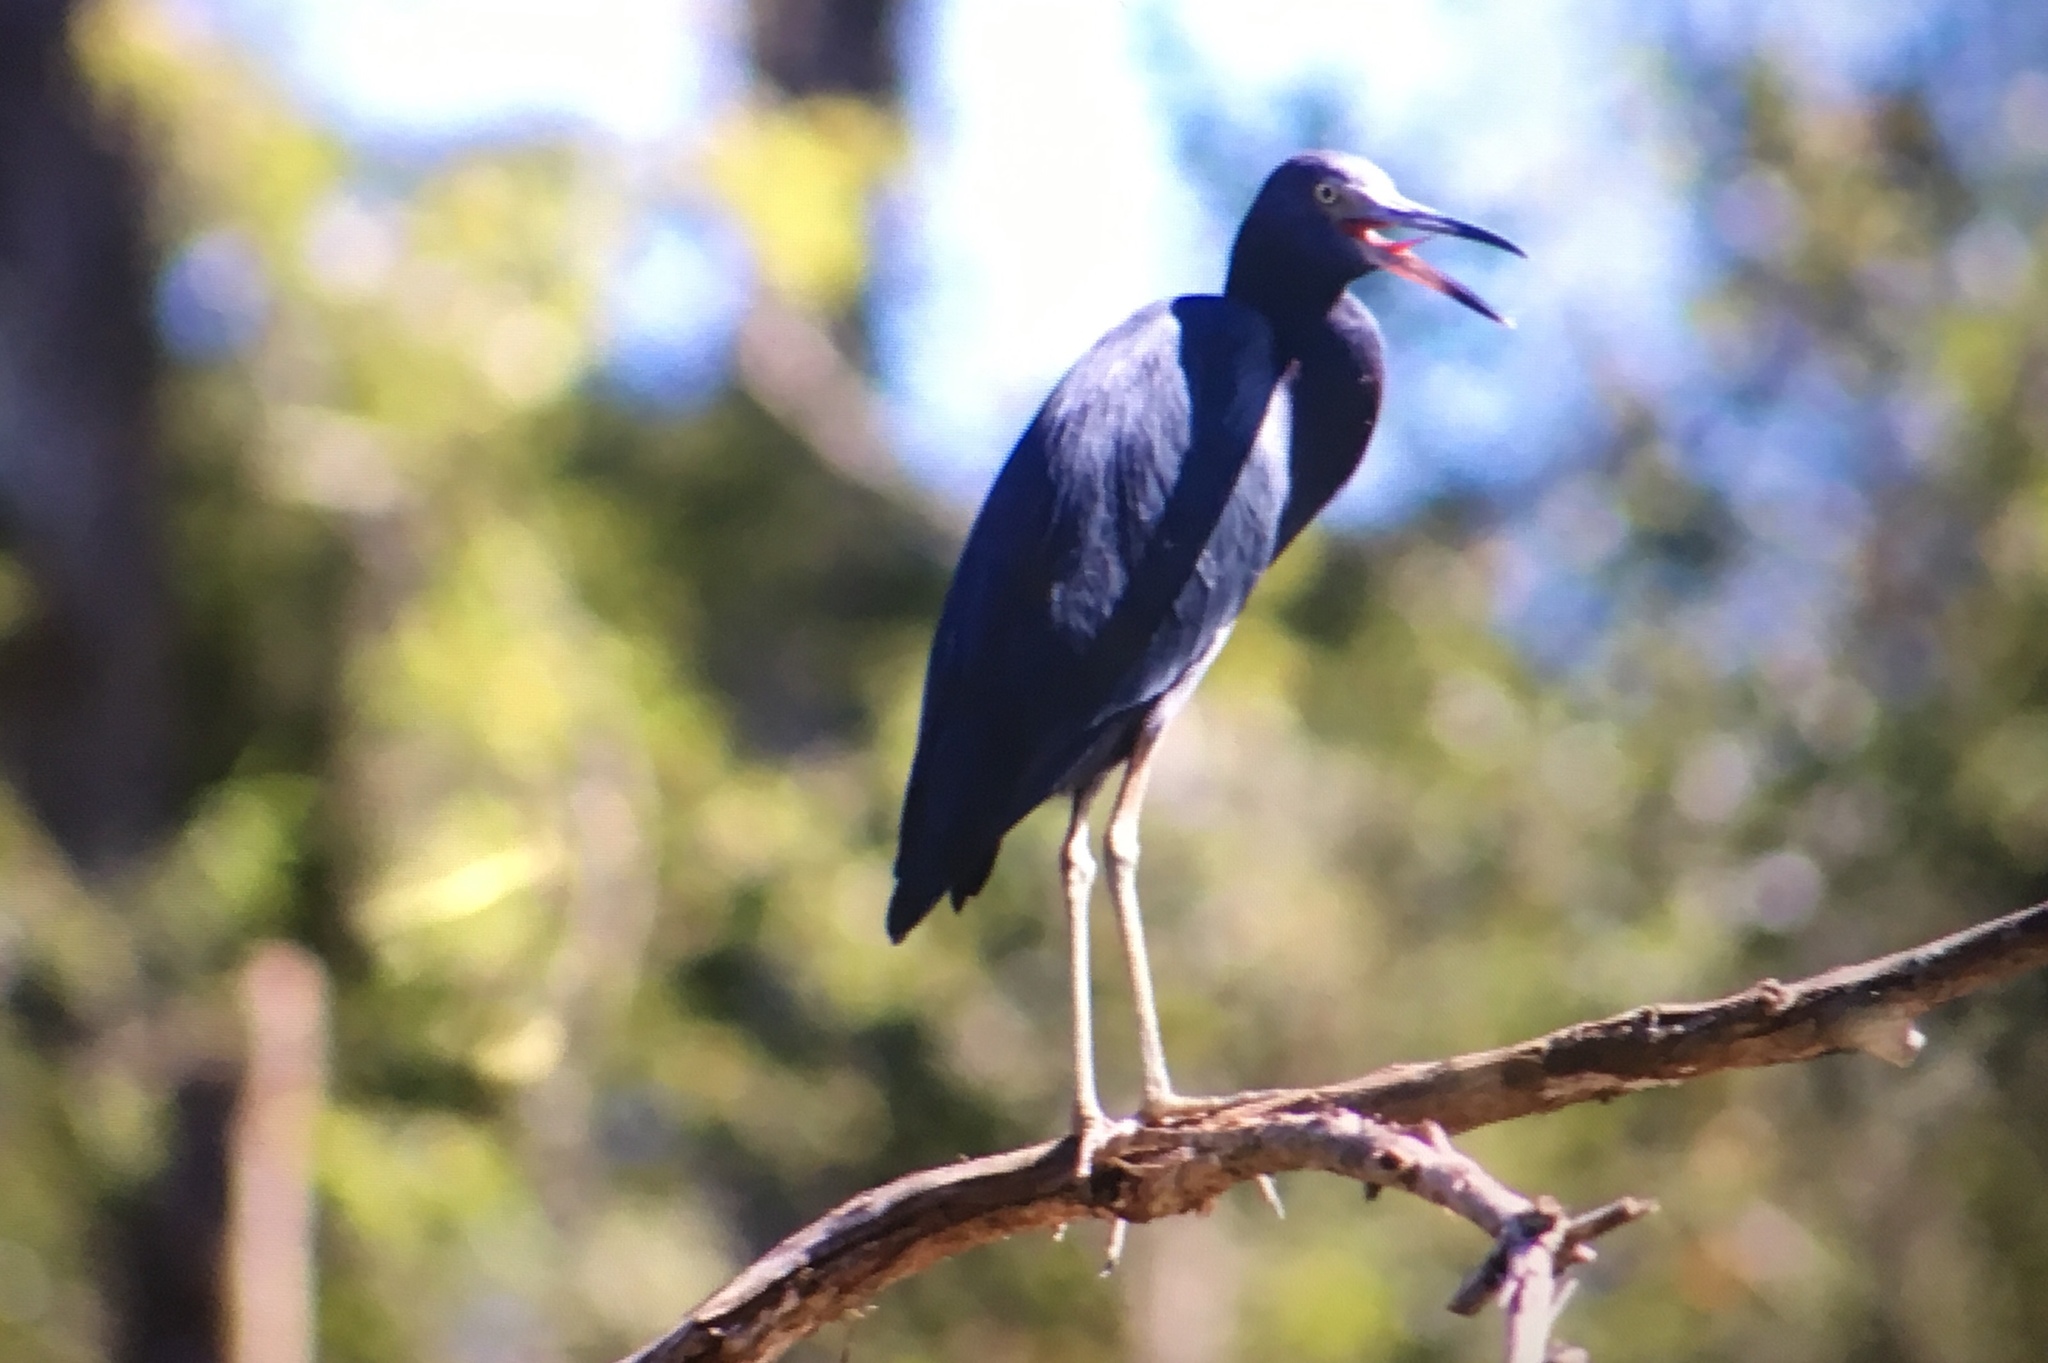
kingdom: Animalia
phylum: Chordata
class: Aves
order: Pelecaniformes
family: Ardeidae
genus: Egretta
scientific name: Egretta caerulea
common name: Little blue heron
